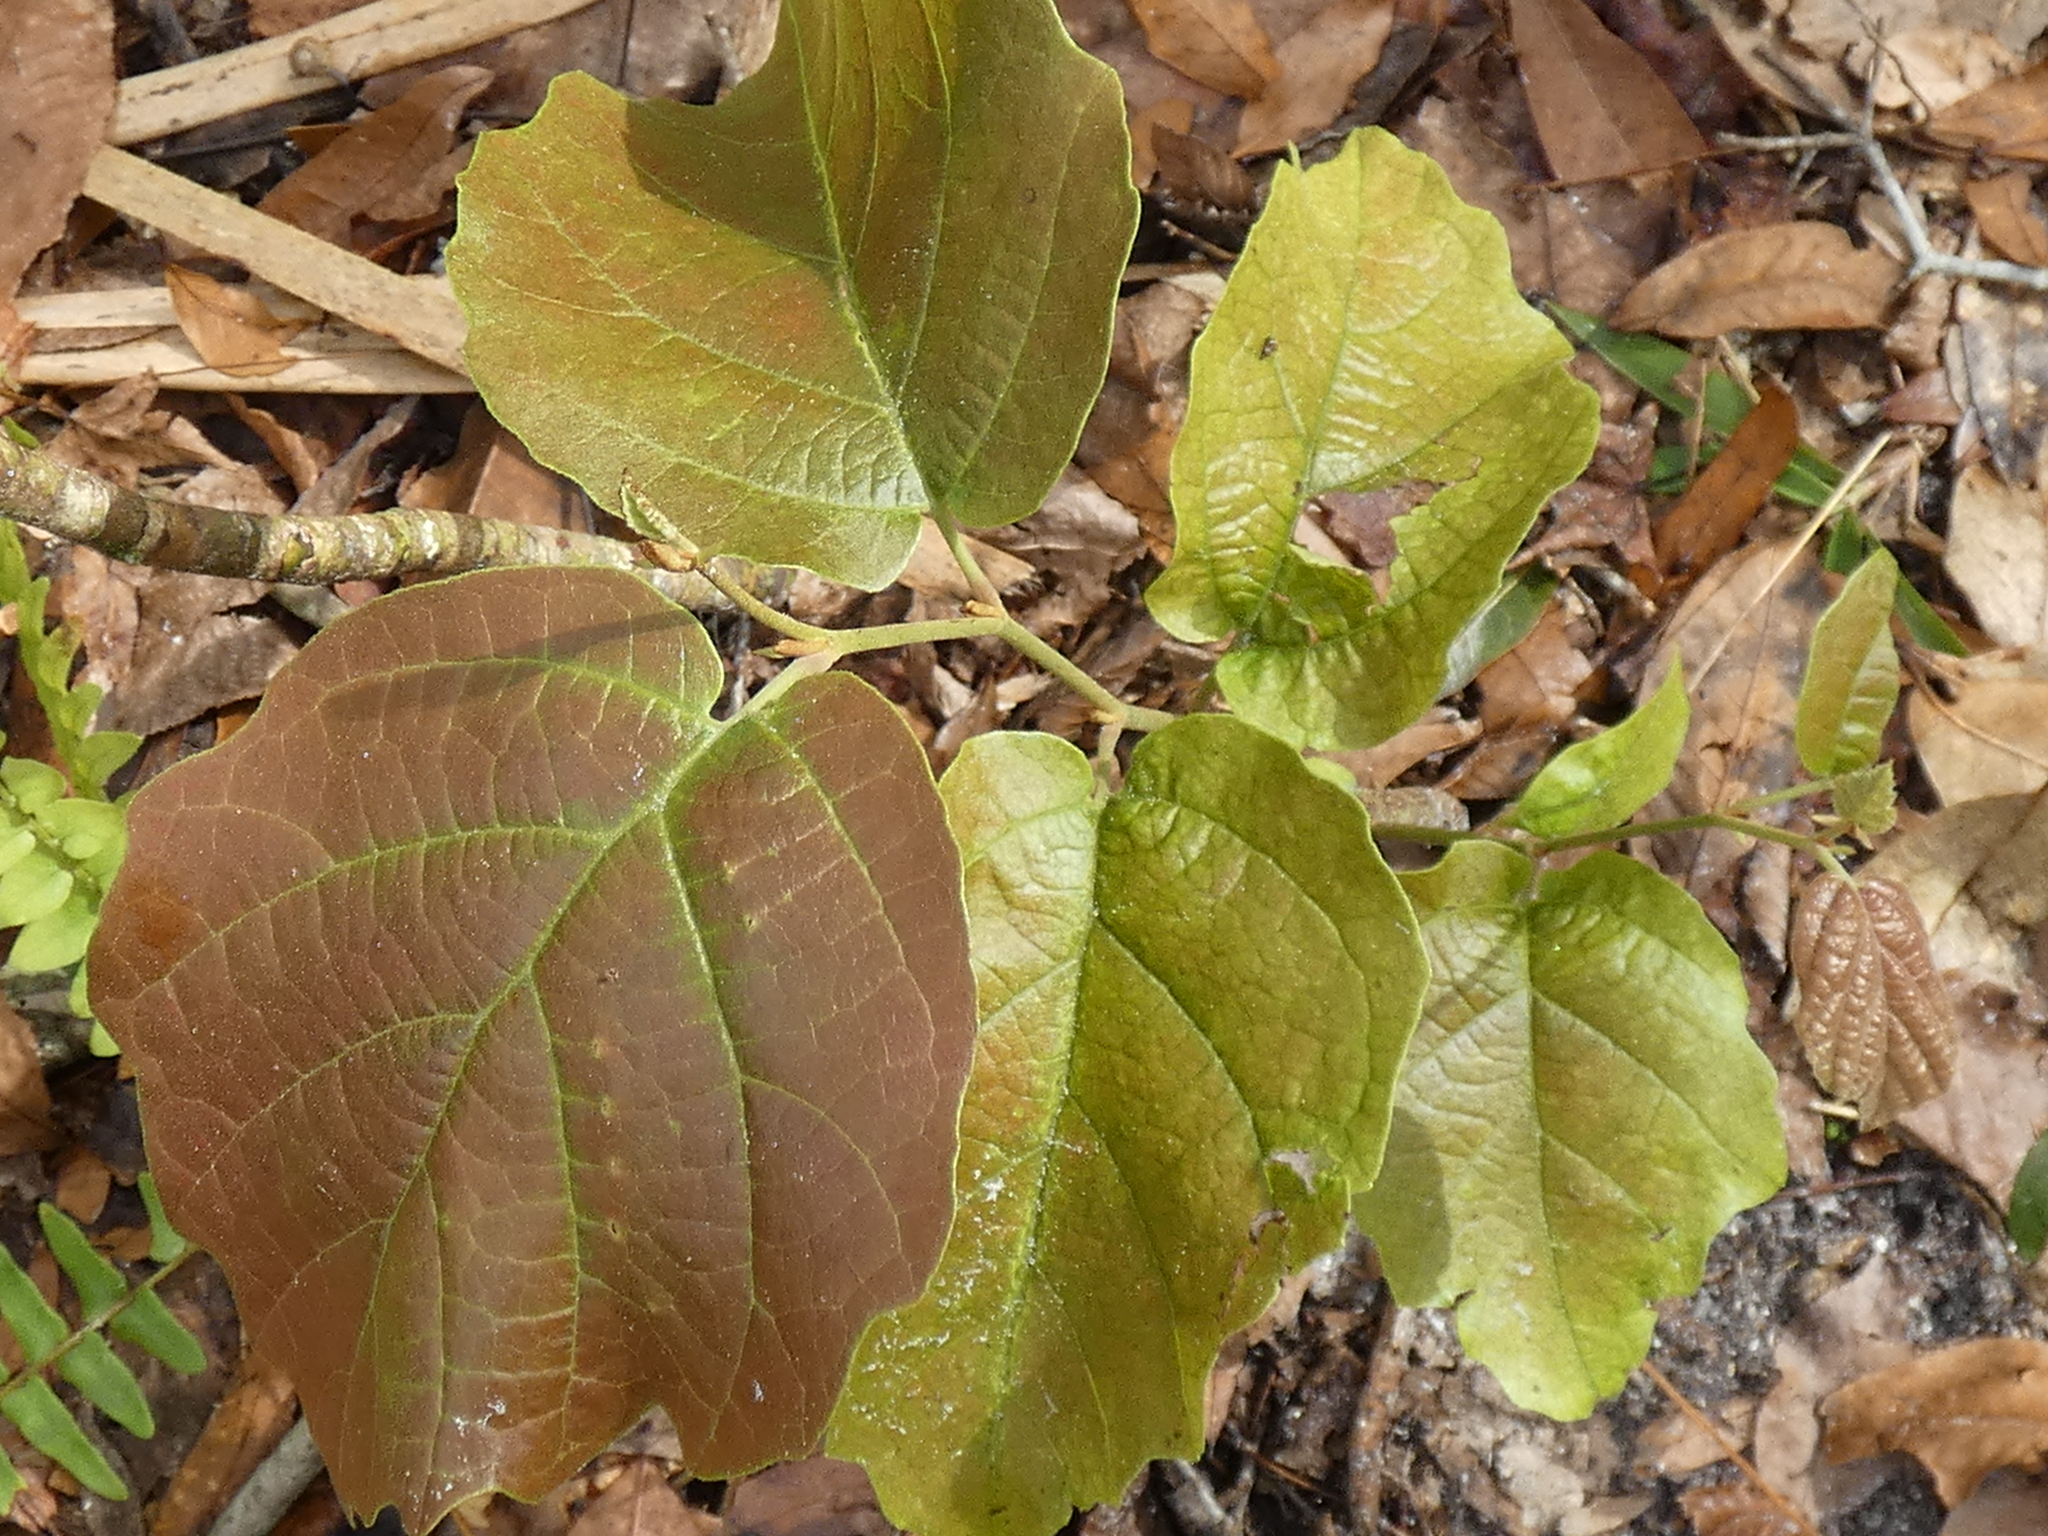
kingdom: Plantae
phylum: Tracheophyta
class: Magnoliopsida
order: Saxifragales
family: Hamamelidaceae
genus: Hamamelis
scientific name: Hamamelis virginiana
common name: Witch-hazel
